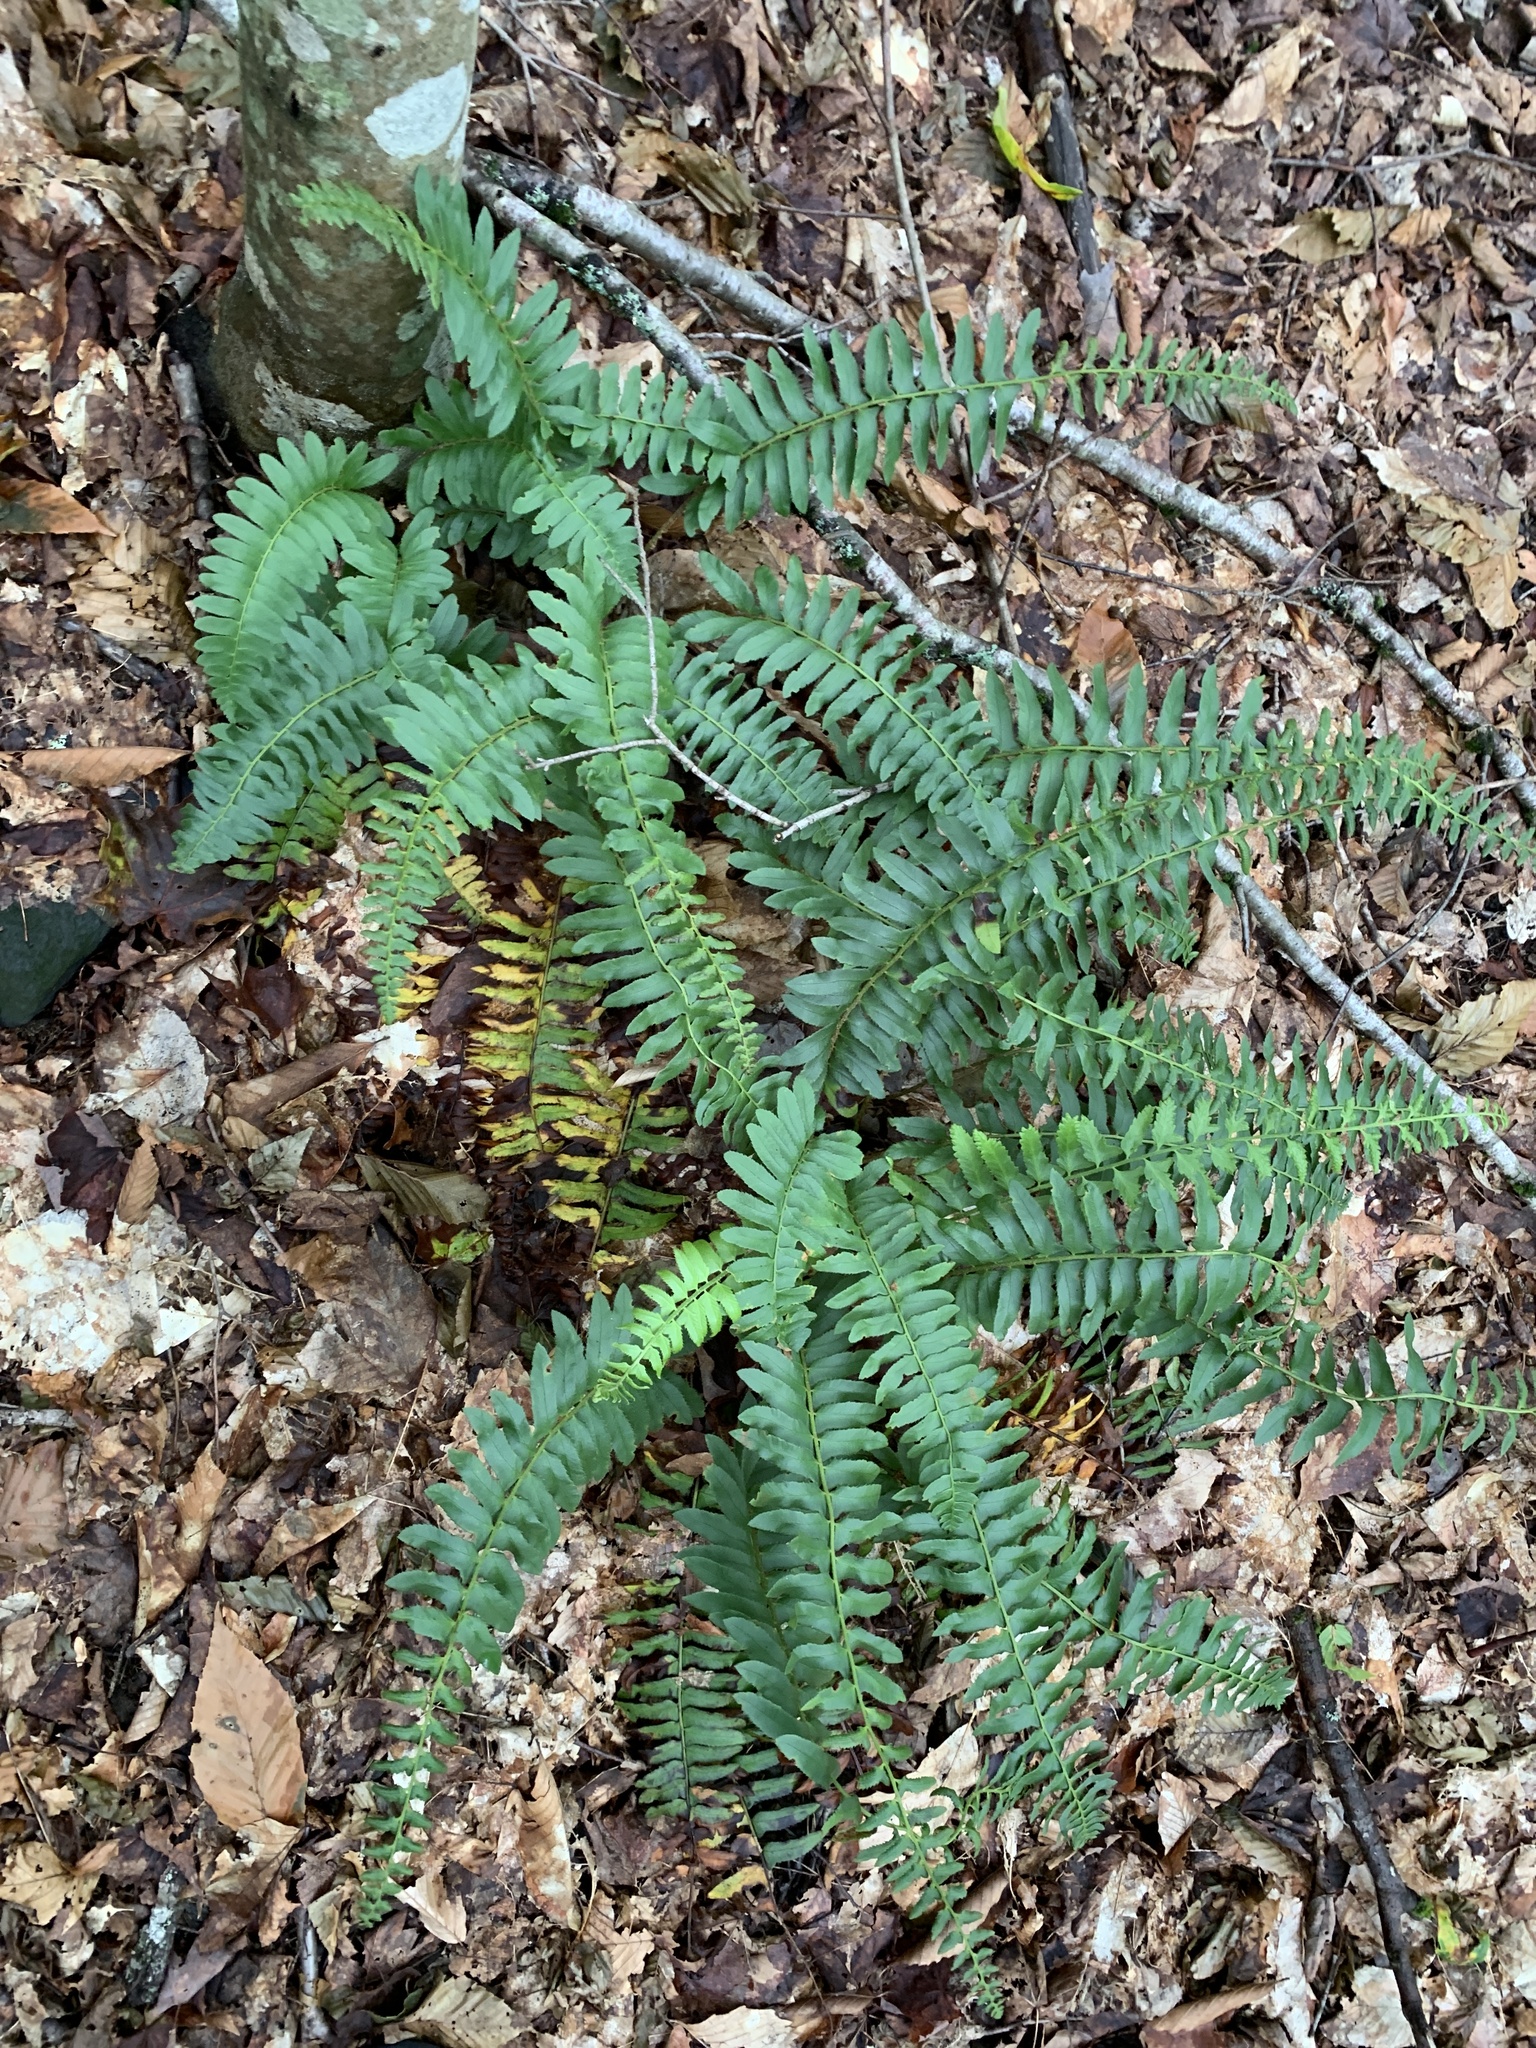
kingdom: Plantae
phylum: Tracheophyta
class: Polypodiopsida
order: Polypodiales
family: Dryopteridaceae
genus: Polystichum
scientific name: Polystichum acrostichoides
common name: Christmas fern
